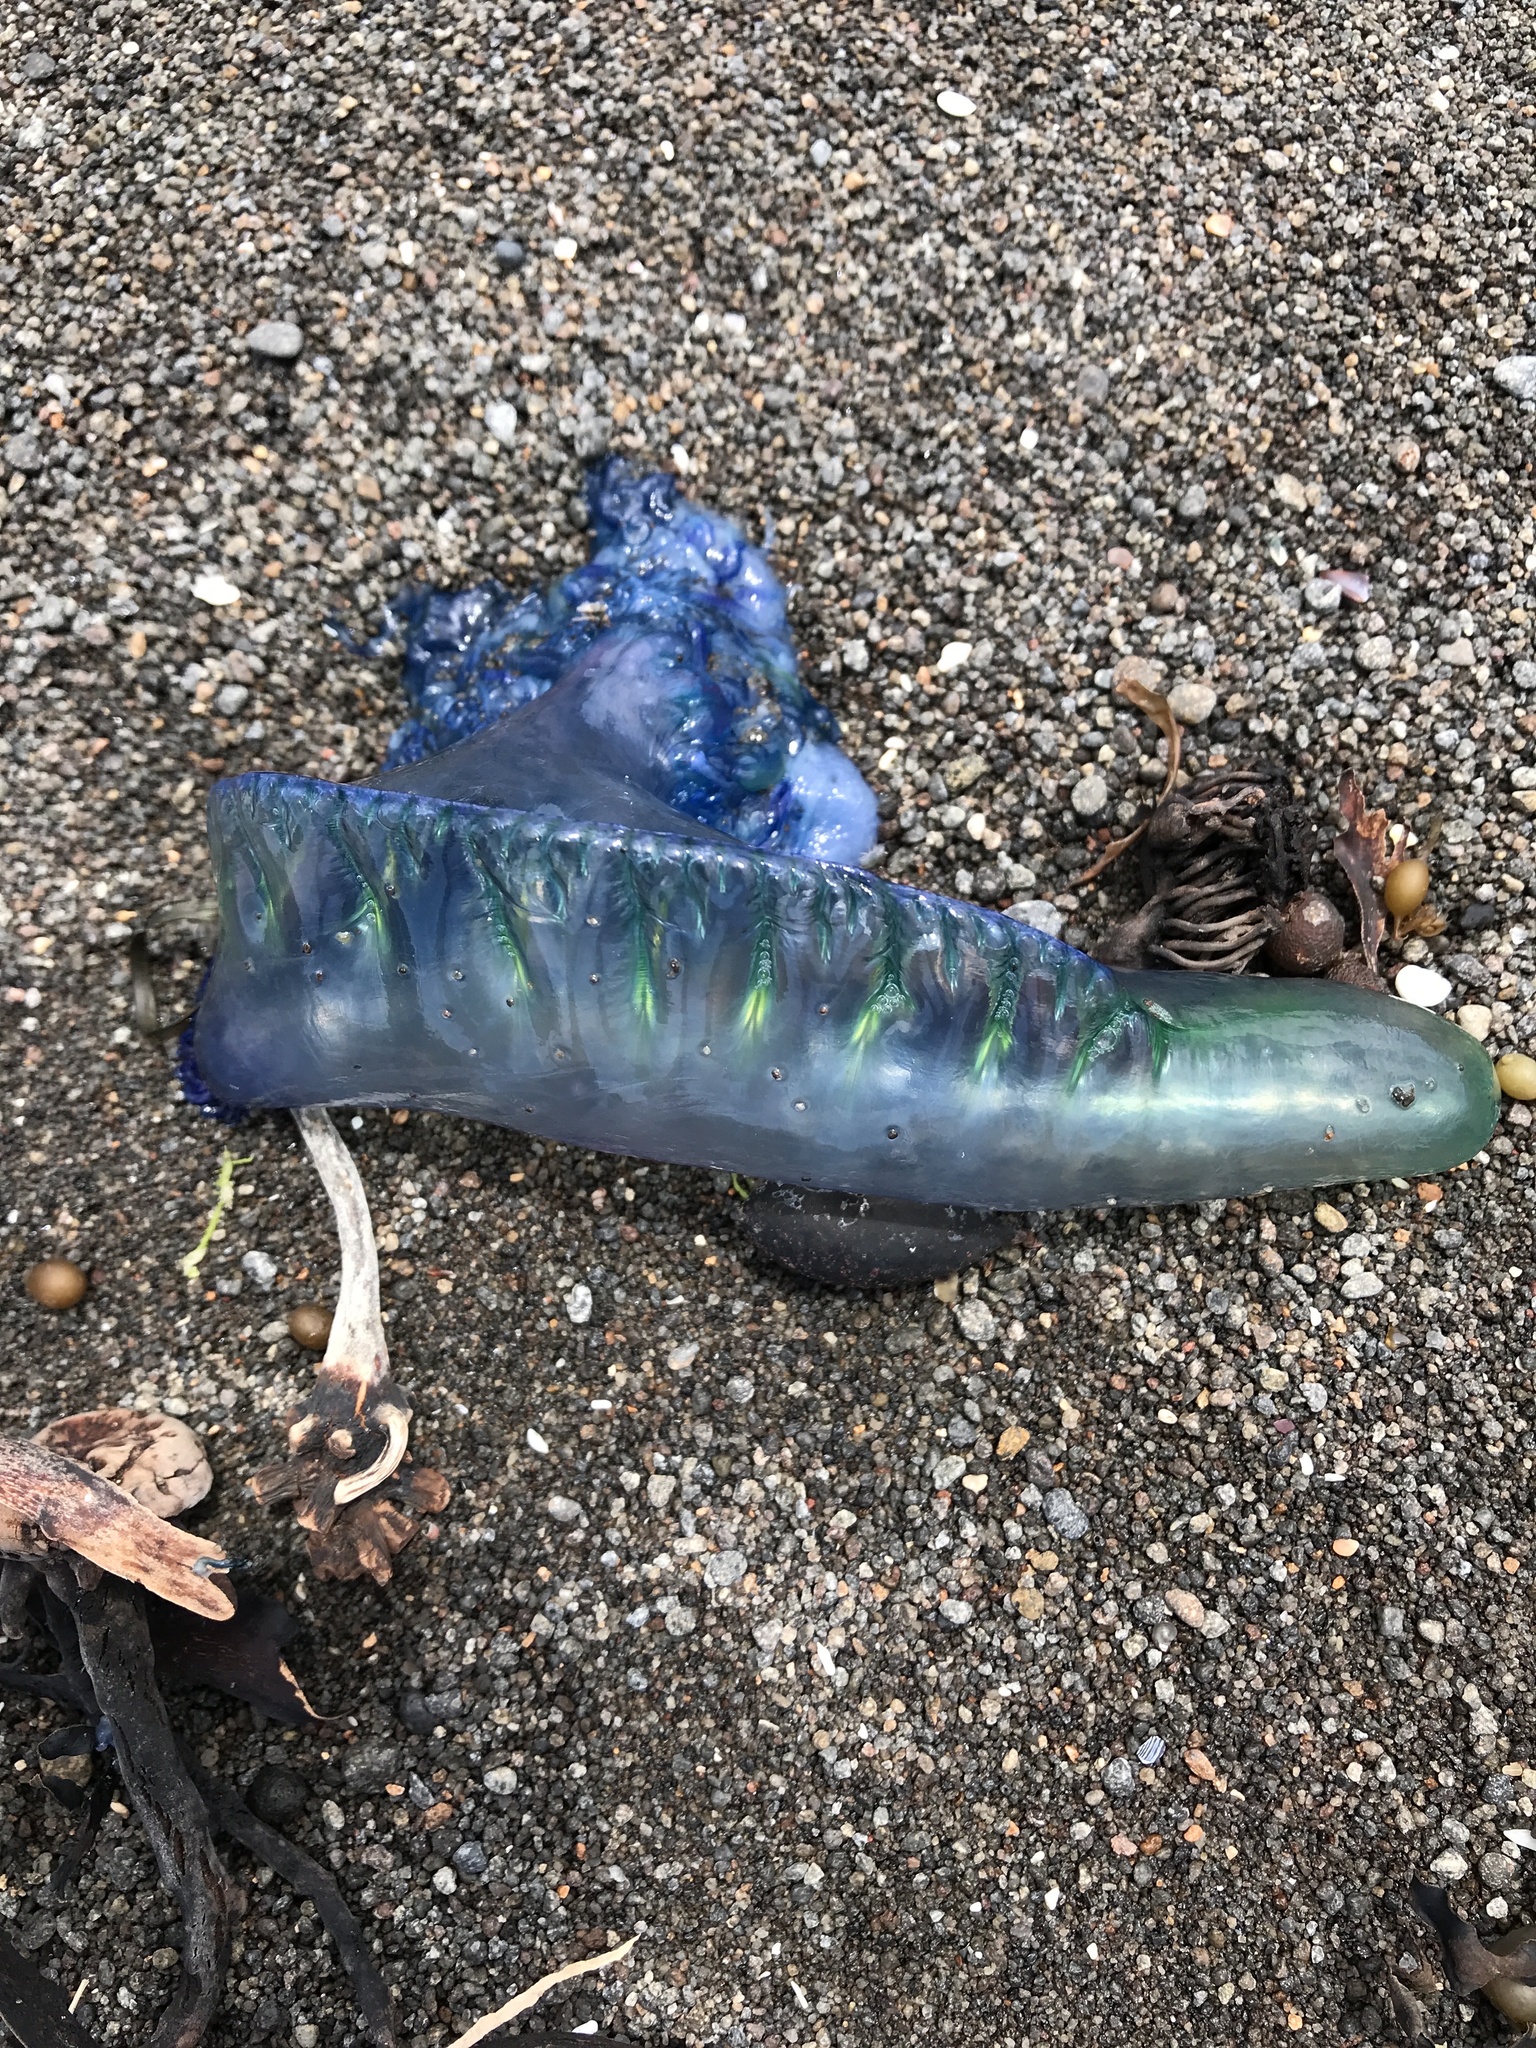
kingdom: Animalia
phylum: Cnidaria
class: Hydrozoa
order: Siphonophorae
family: Physaliidae
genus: Physalia
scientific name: Physalia physalis
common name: Portuguese man-of-war
